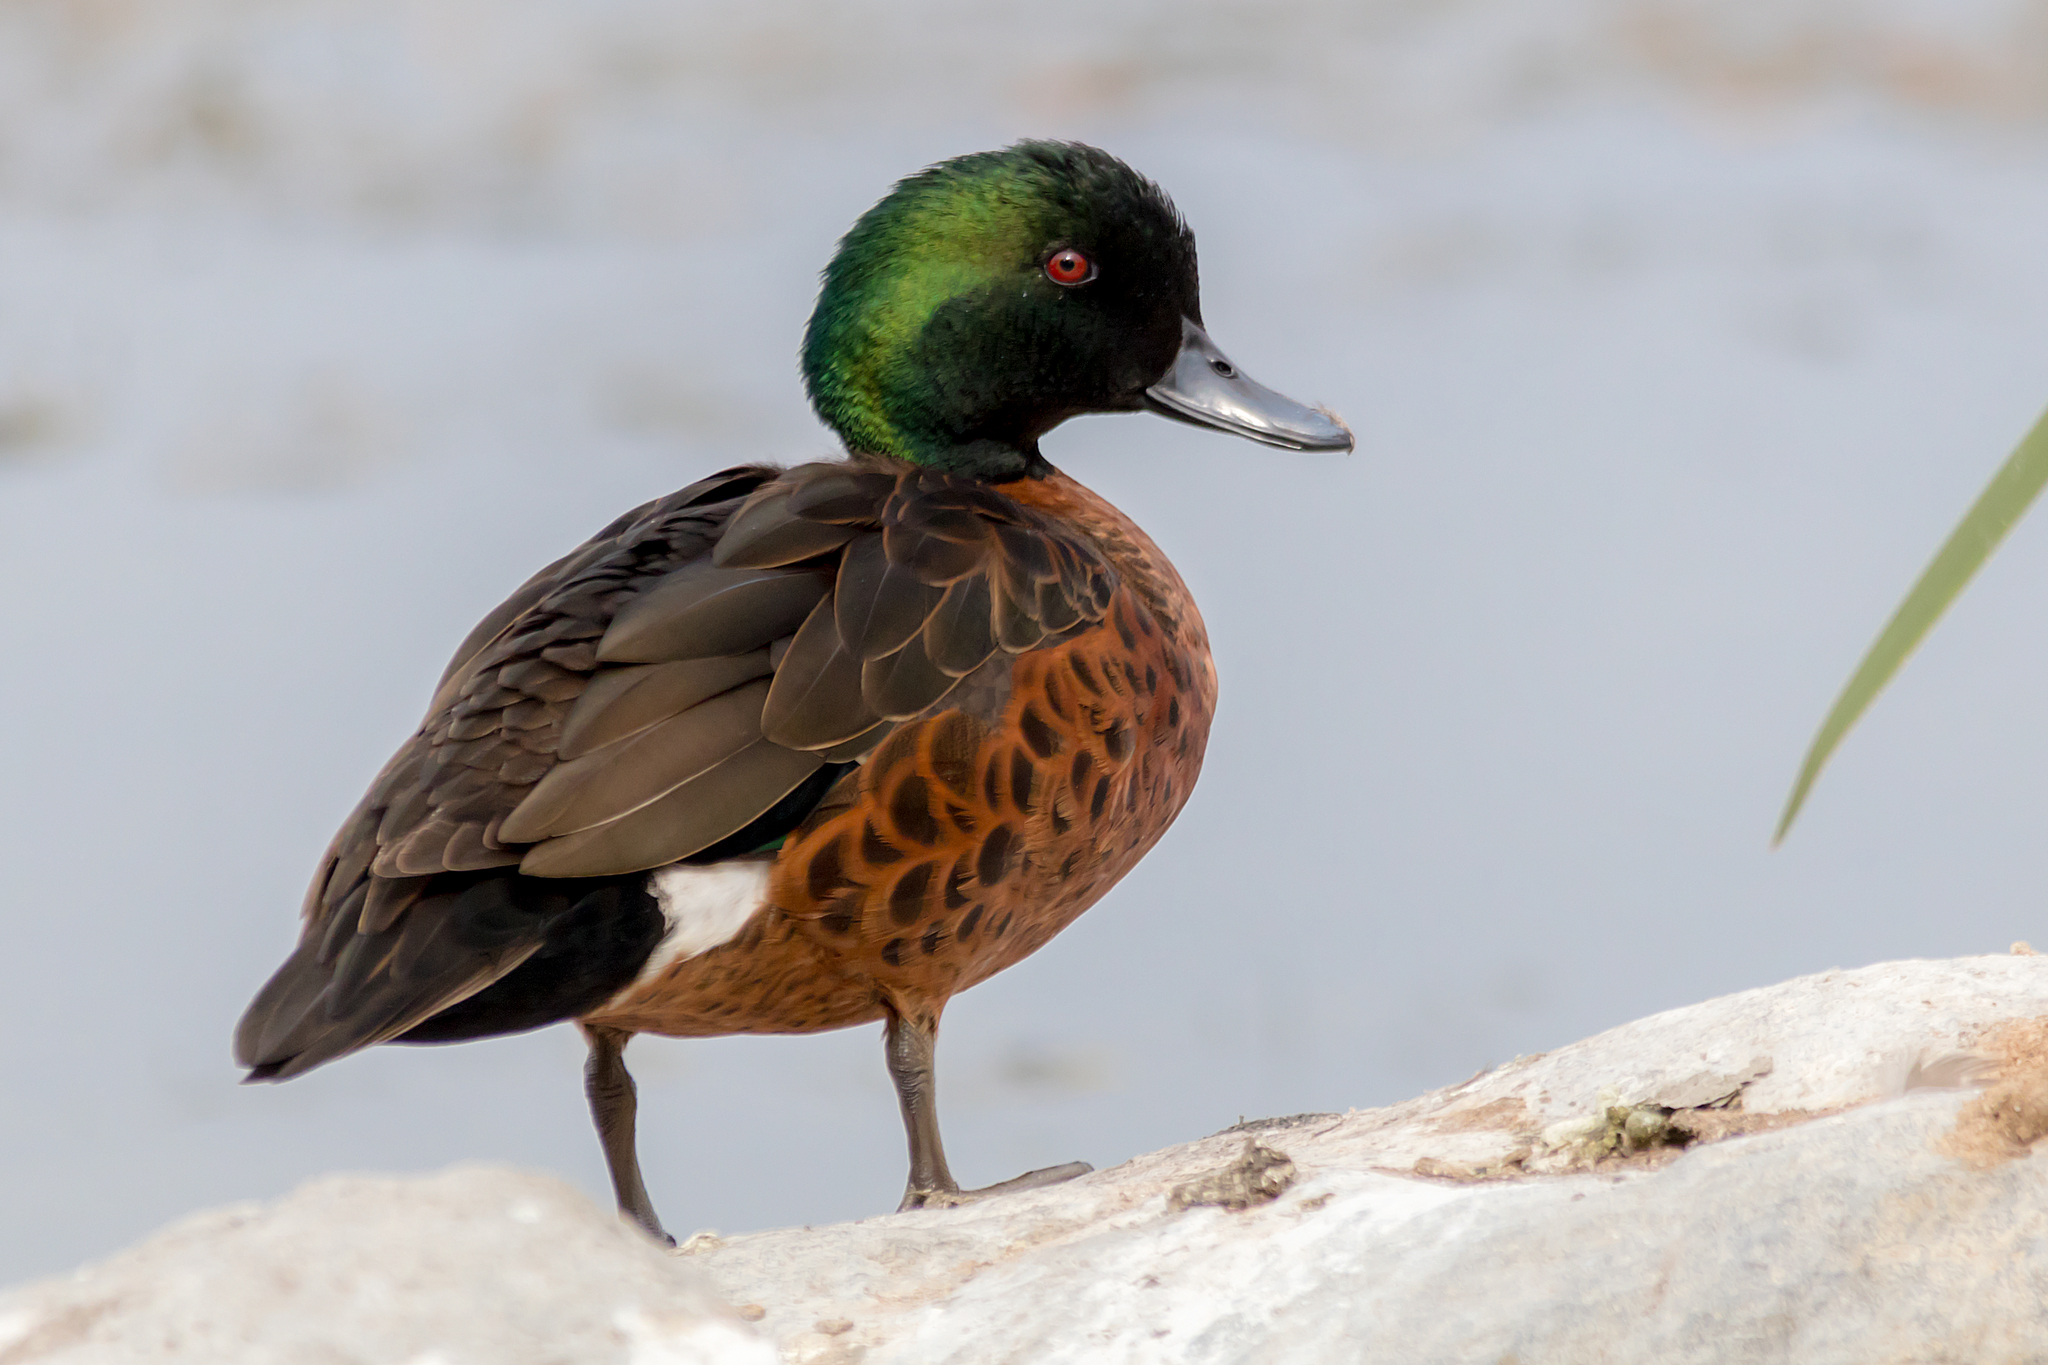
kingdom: Animalia
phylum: Chordata
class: Aves
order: Anseriformes
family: Anatidae
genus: Anas
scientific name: Anas castanea
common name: Chestnut teal
